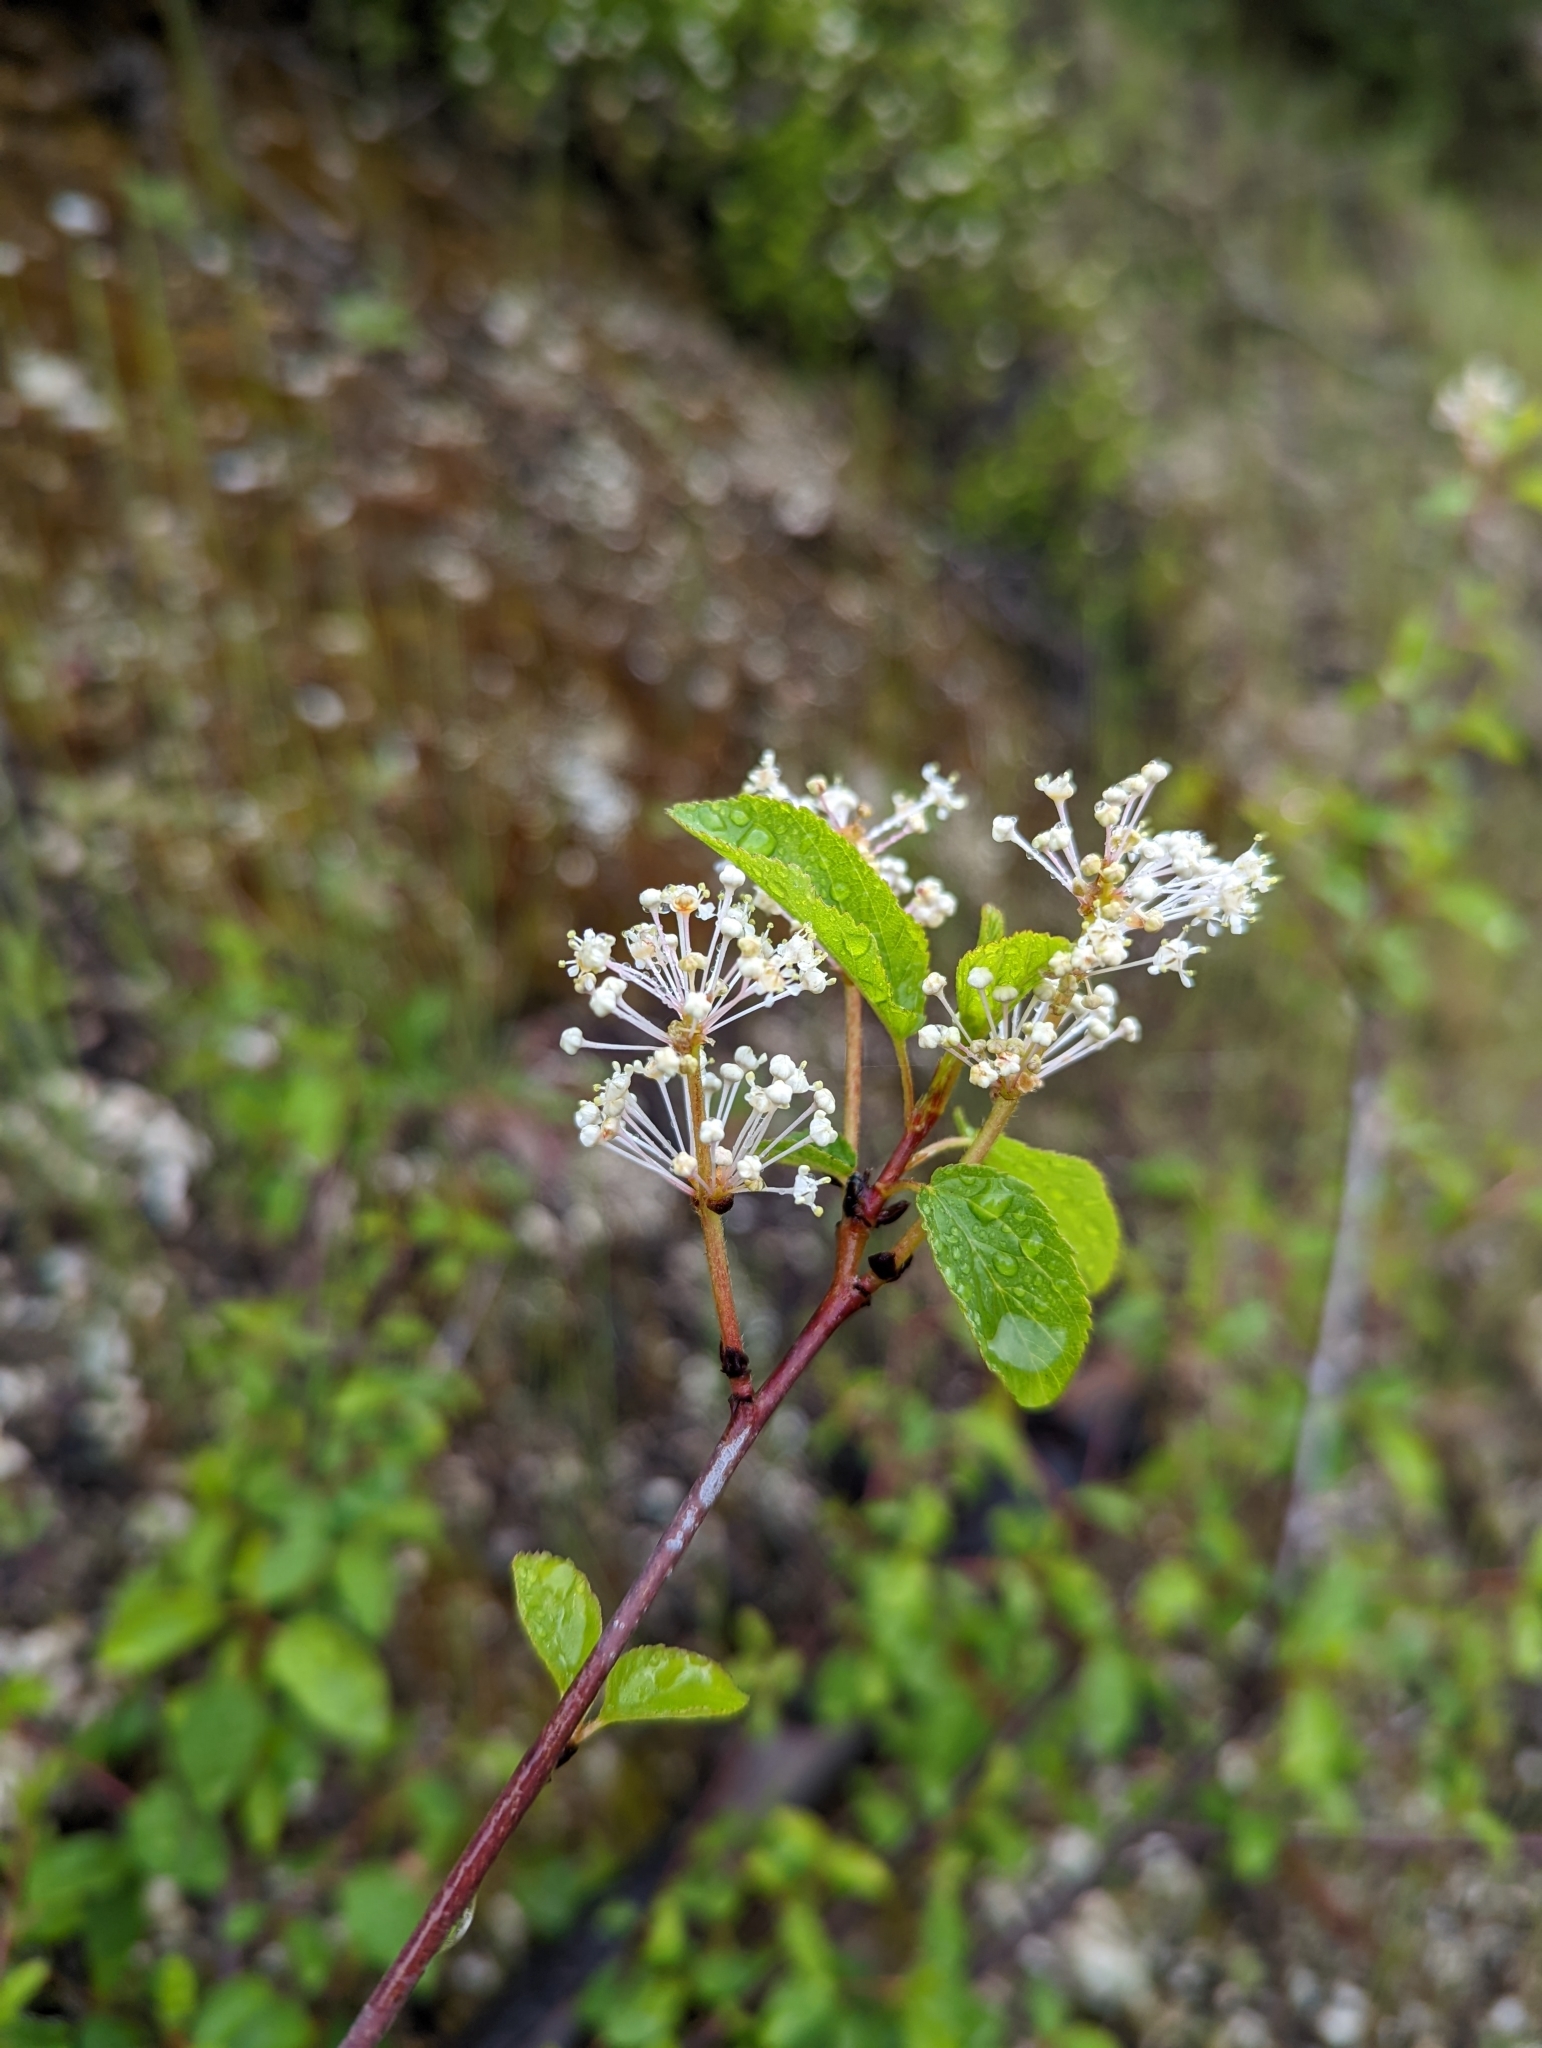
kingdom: Plantae
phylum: Tracheophyta
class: Magnoliopsida
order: Rosales
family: Rhamnaceae
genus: Ceanothus
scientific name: Ceanothus sanguineus
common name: Teatree
